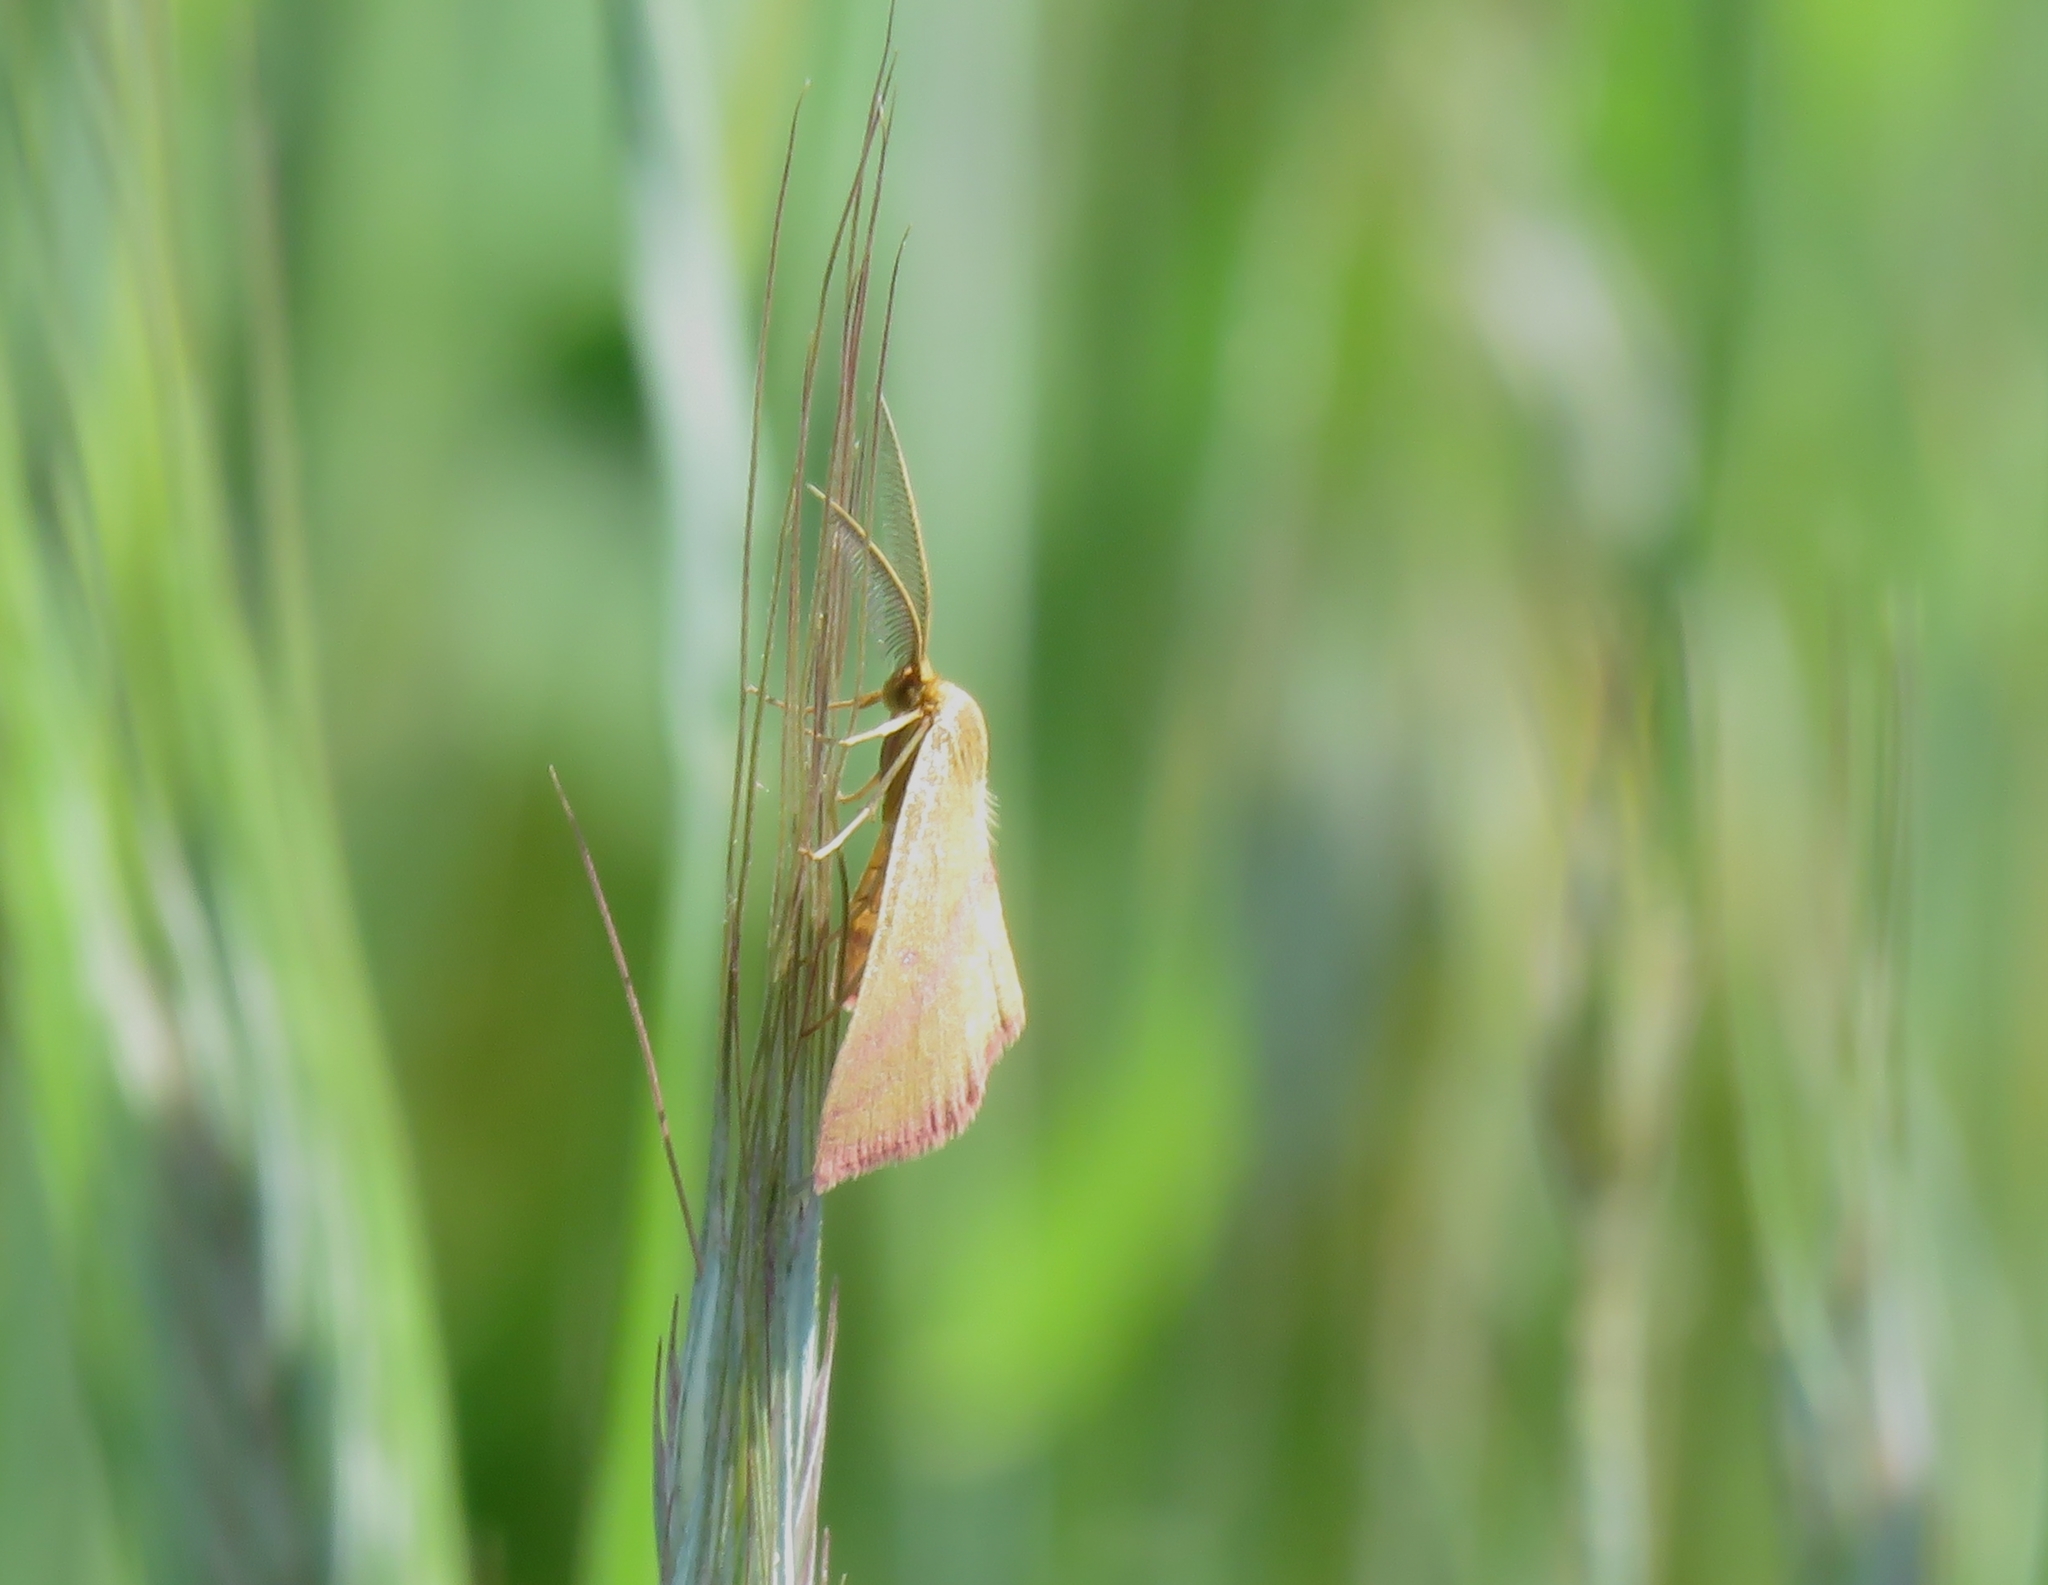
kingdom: Animalia
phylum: Arthropoda
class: Insecta
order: Lepidoptera
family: Geometridae
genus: Haematopis
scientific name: Haematopis grataria
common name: Chickweed geometer
